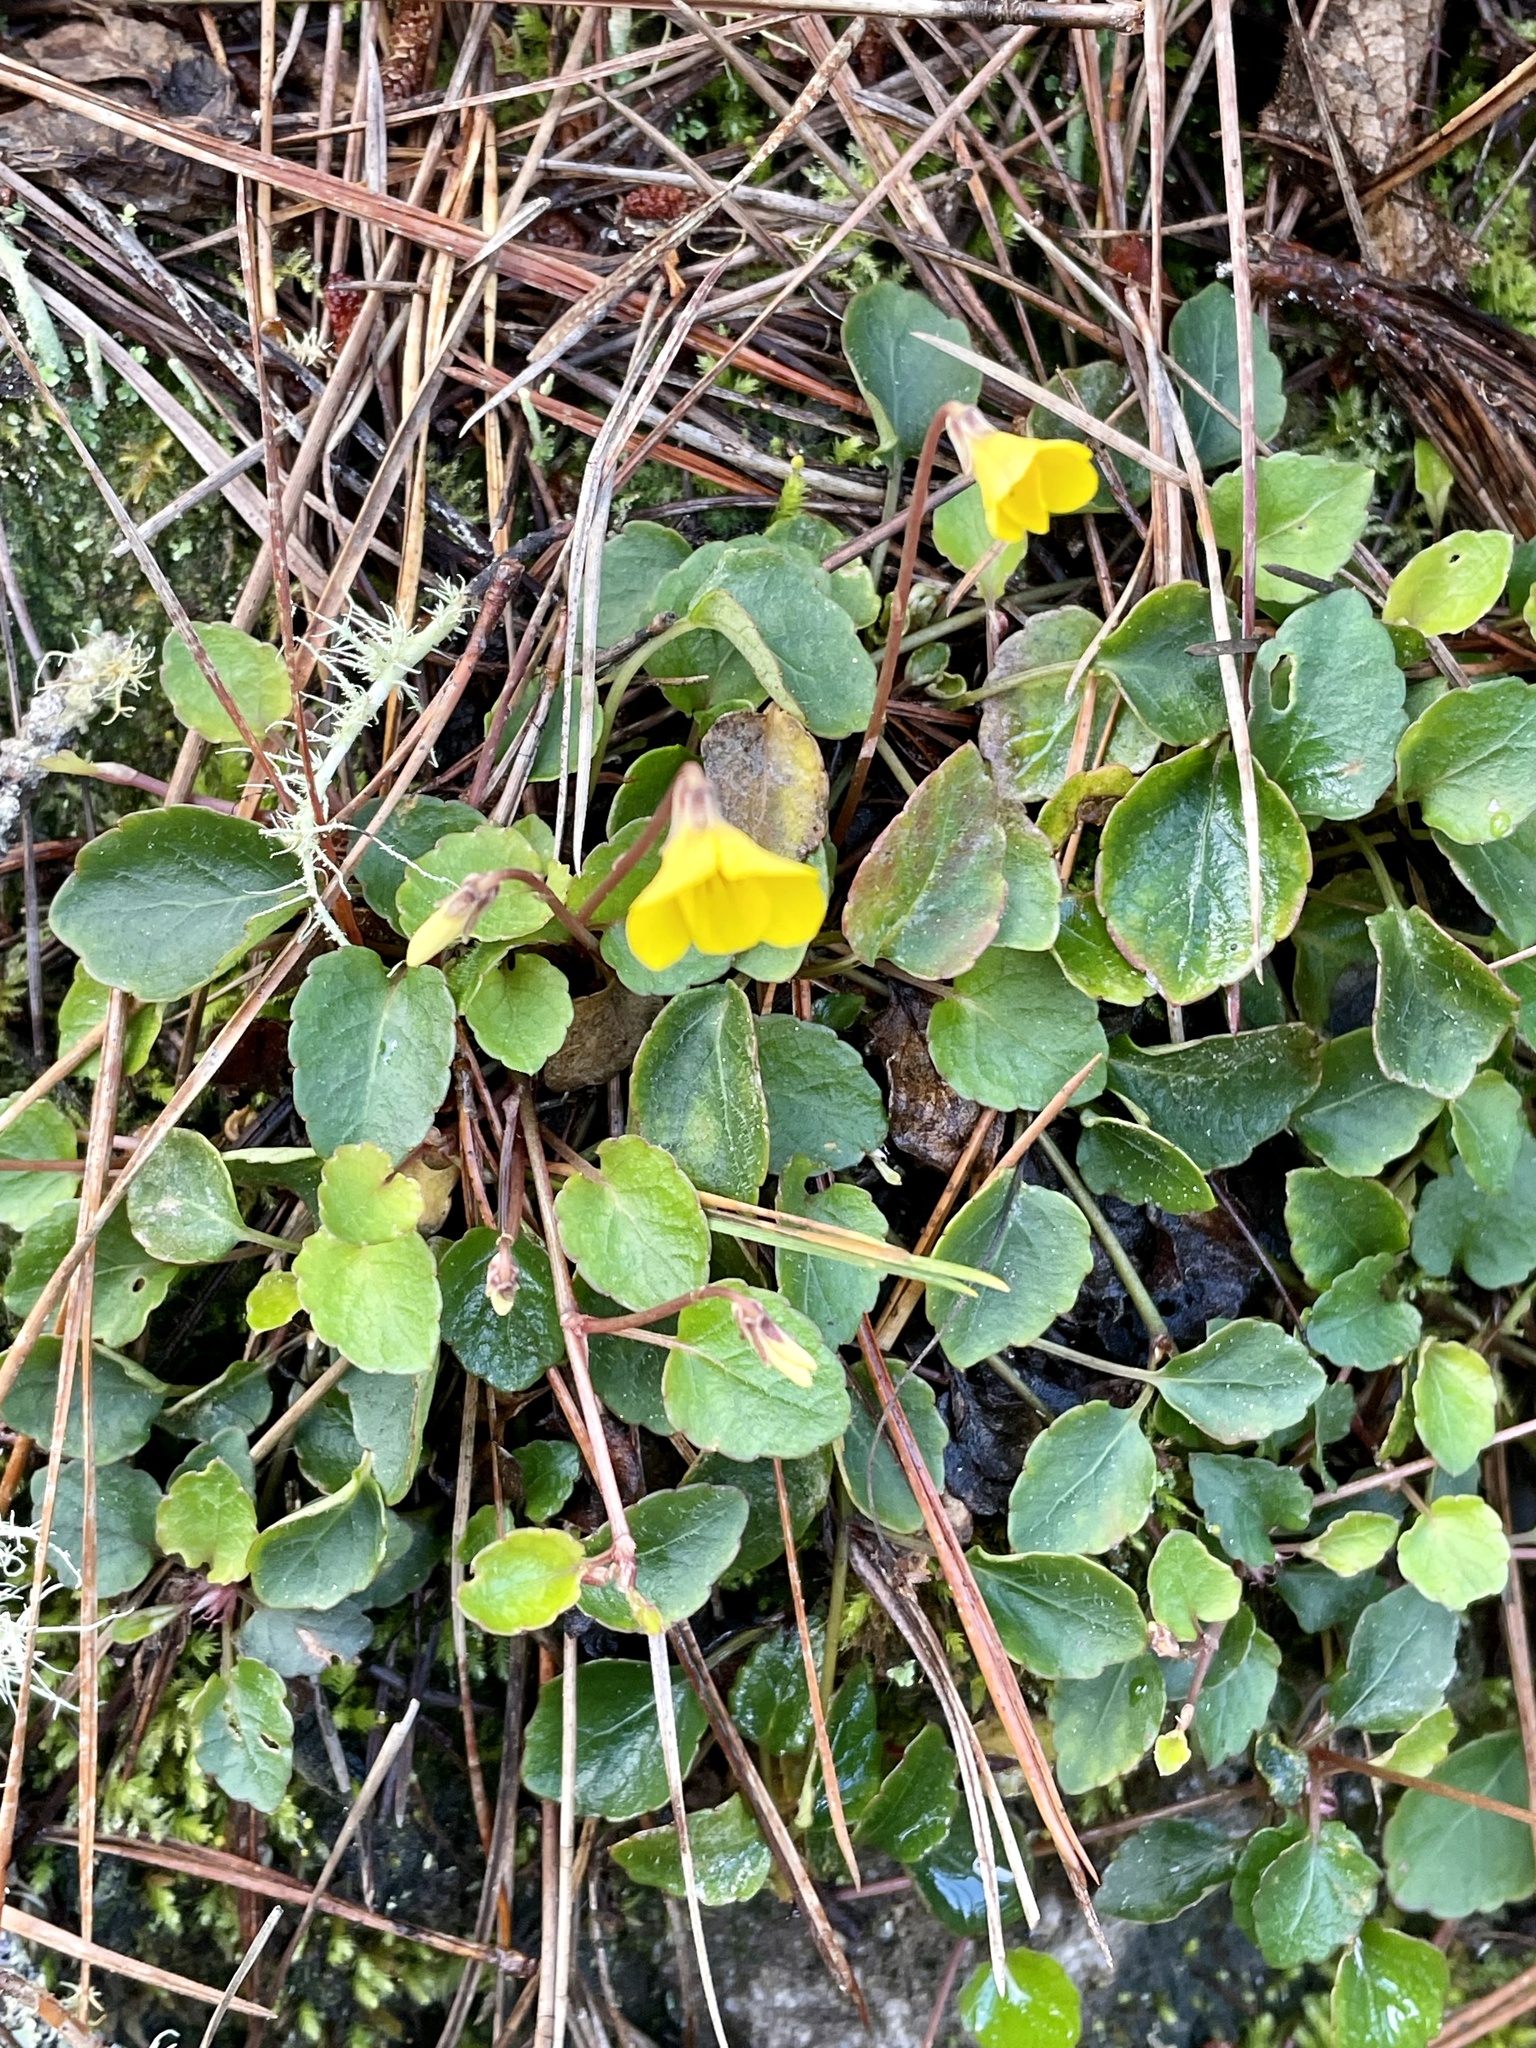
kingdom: Plantae
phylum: Tracheophyta
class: Magnoliopsida
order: Malpighiales
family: Violaceae
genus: Viola
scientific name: Viola sempervirens
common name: Evergreen violet
